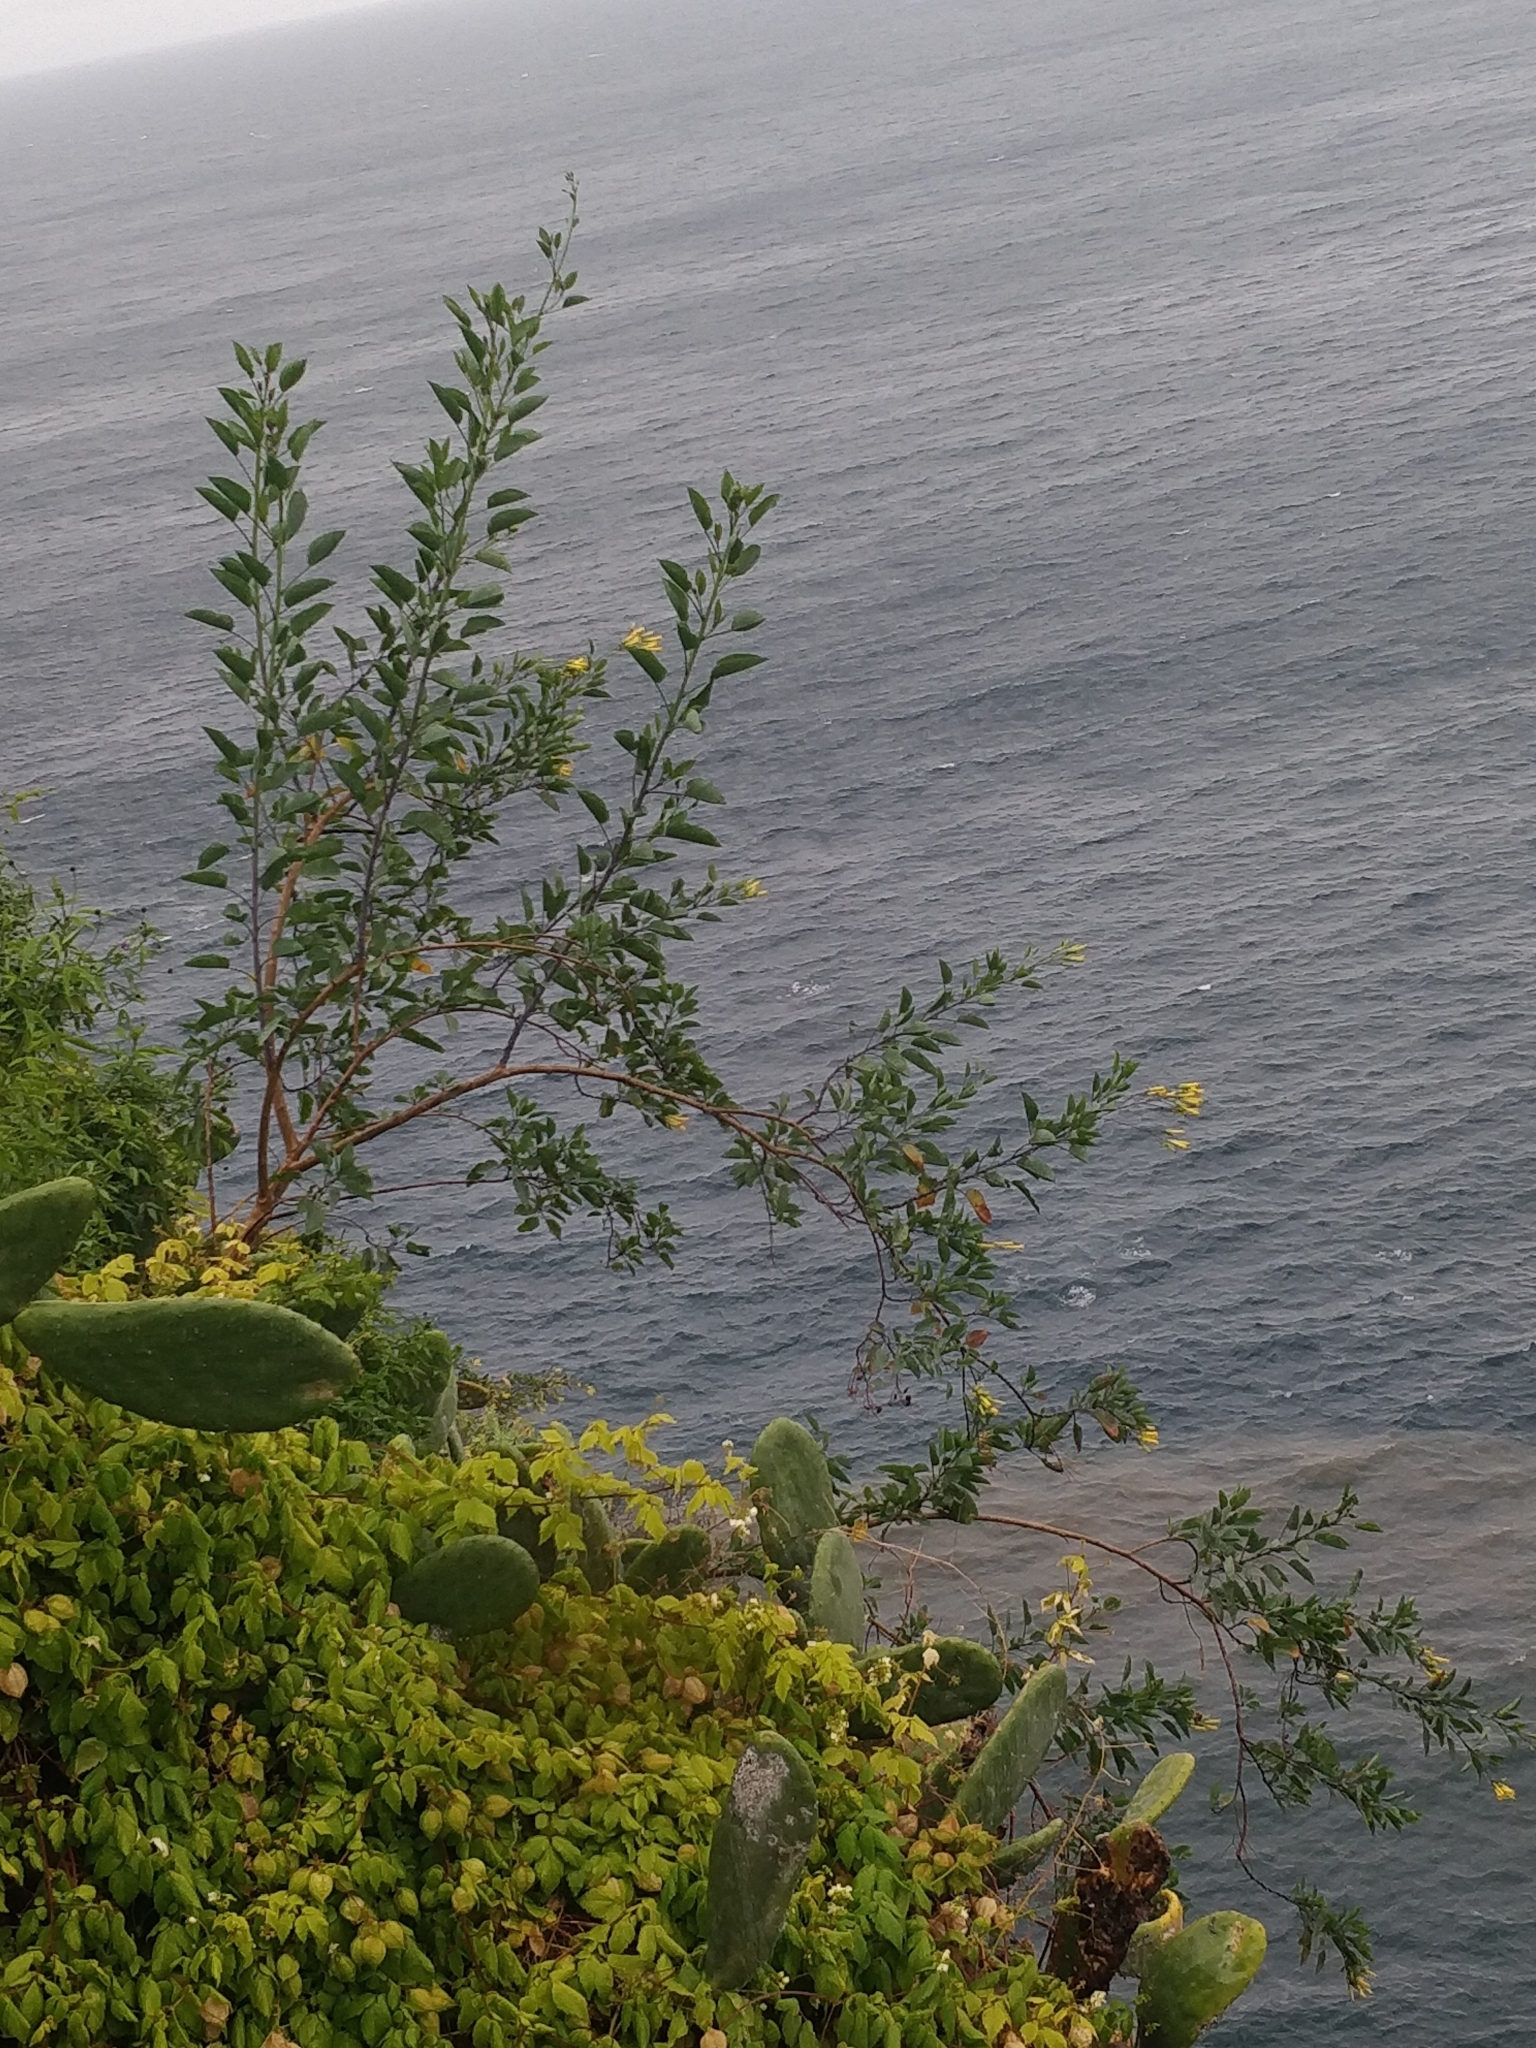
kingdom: Plantae
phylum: Tracheophyta
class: Magnoliopsida
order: Solanales
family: Solanaceae
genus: Nicotiana
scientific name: Nicotiana glauca
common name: Tree tobacco
